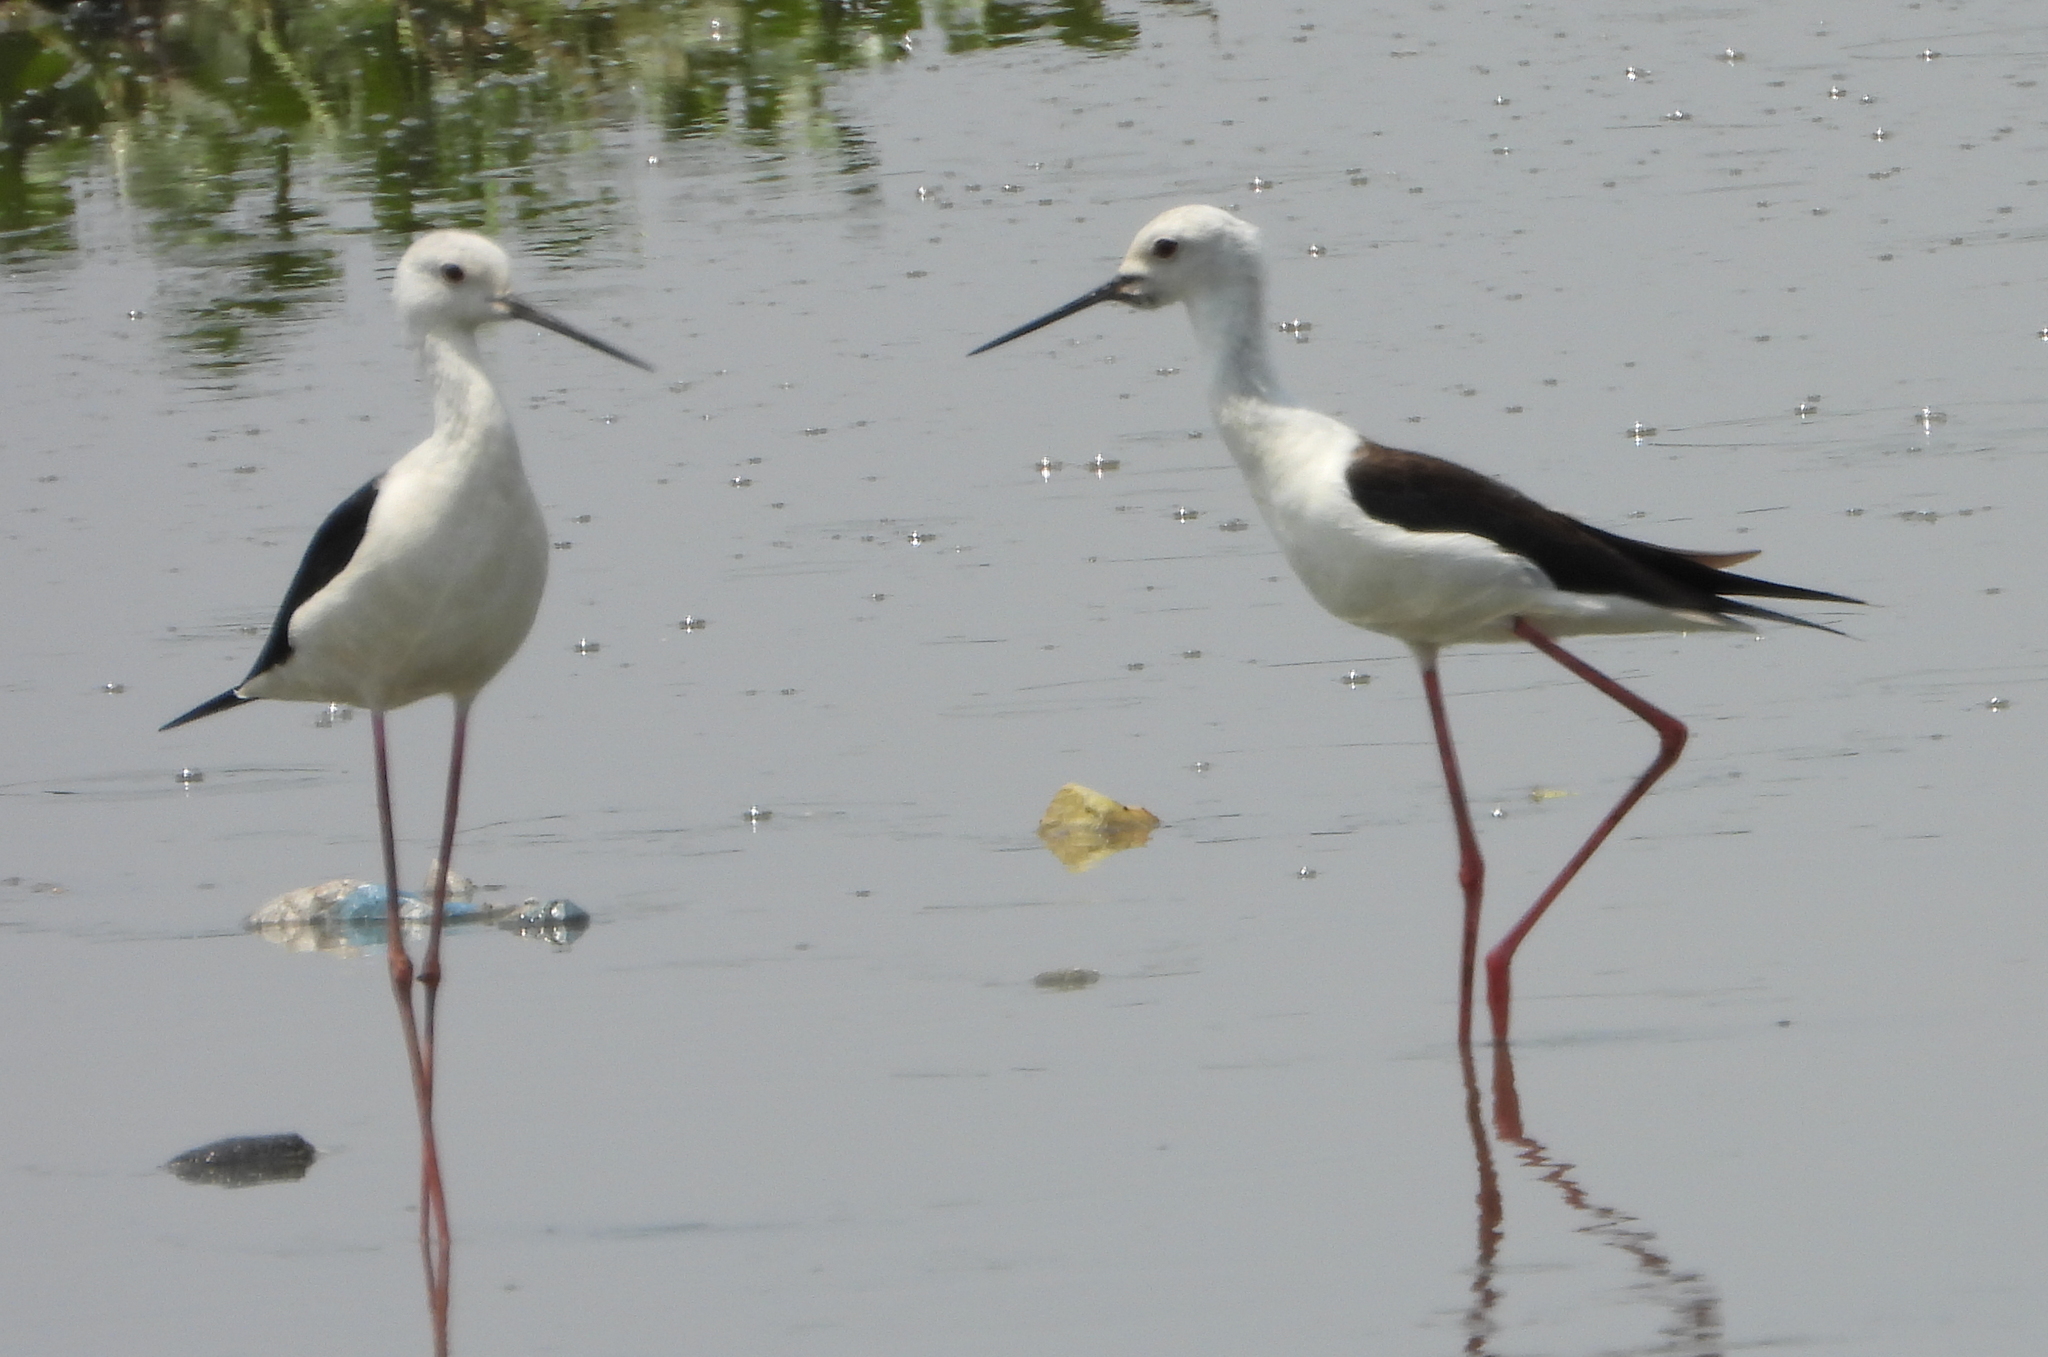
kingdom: Animalia
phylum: Chordata
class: Aves
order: Charadriiformes
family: Recurvirostridae
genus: Himantopus
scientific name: Himantopus himantopus
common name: Black-winged stilt
